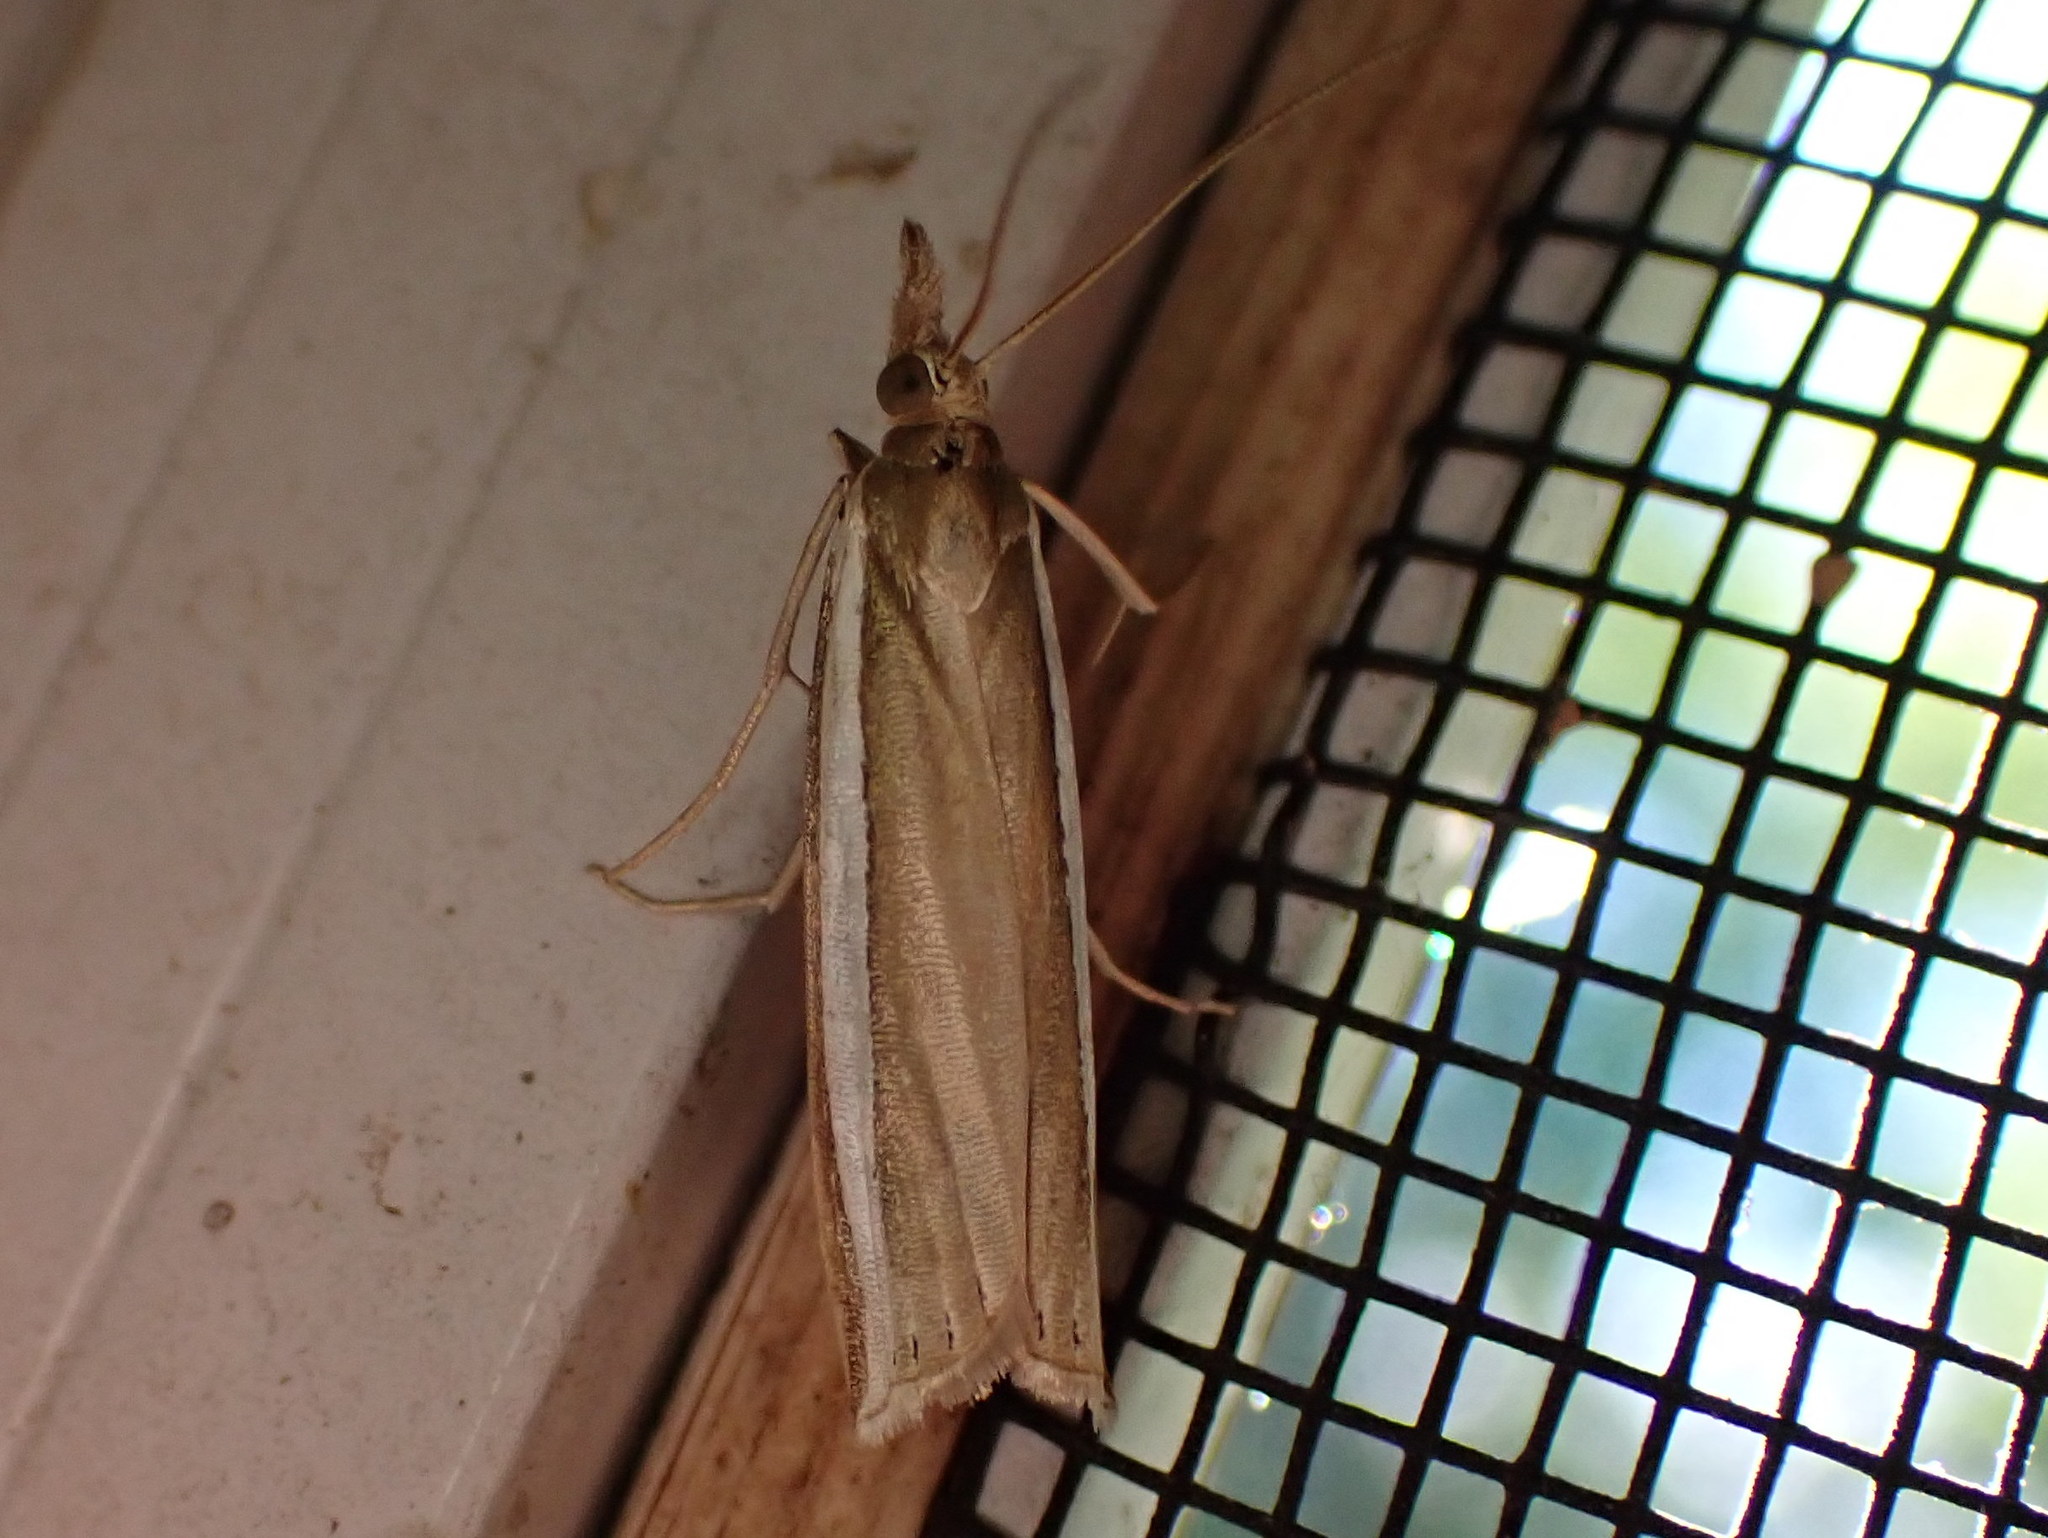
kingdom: Animalia
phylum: Arthropoda
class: Insecta
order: Lepidoptera
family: Crambidae
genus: Crambus
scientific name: Crambus unistriatellus
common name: Wide-stripe grass-veneer moth
